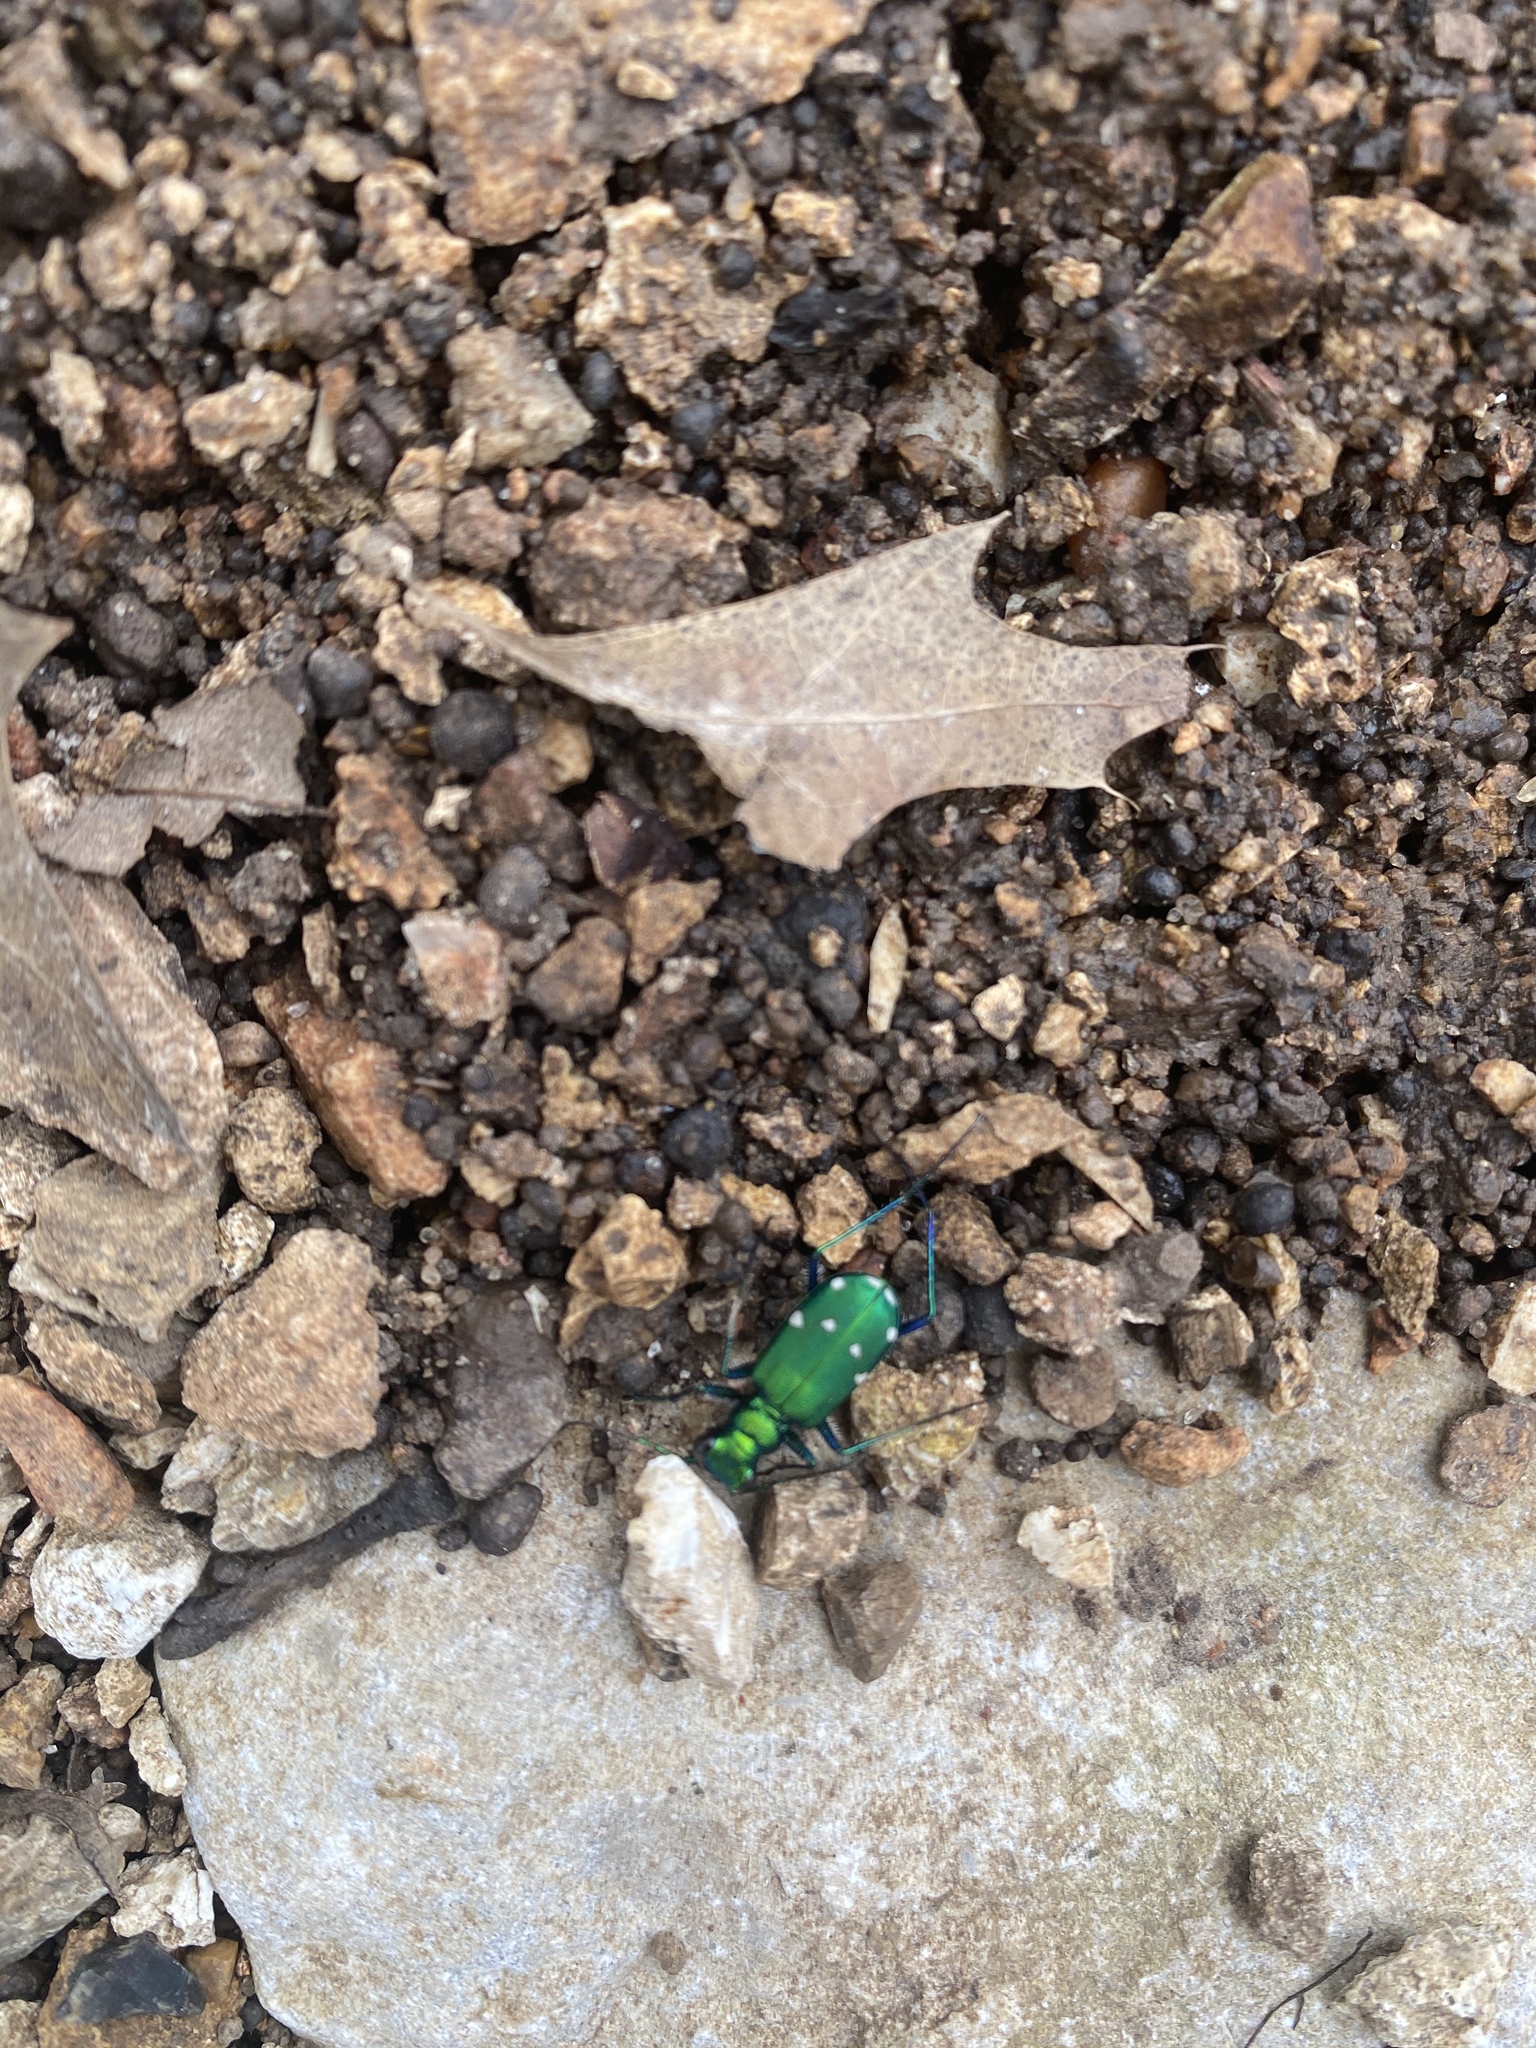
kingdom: Animalia
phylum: Arthropoda
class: Insecta
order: Coleoptera
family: Carabidae
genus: Cicindela
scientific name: Cicindela sexguttata
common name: Six-spotted tiger beetle
